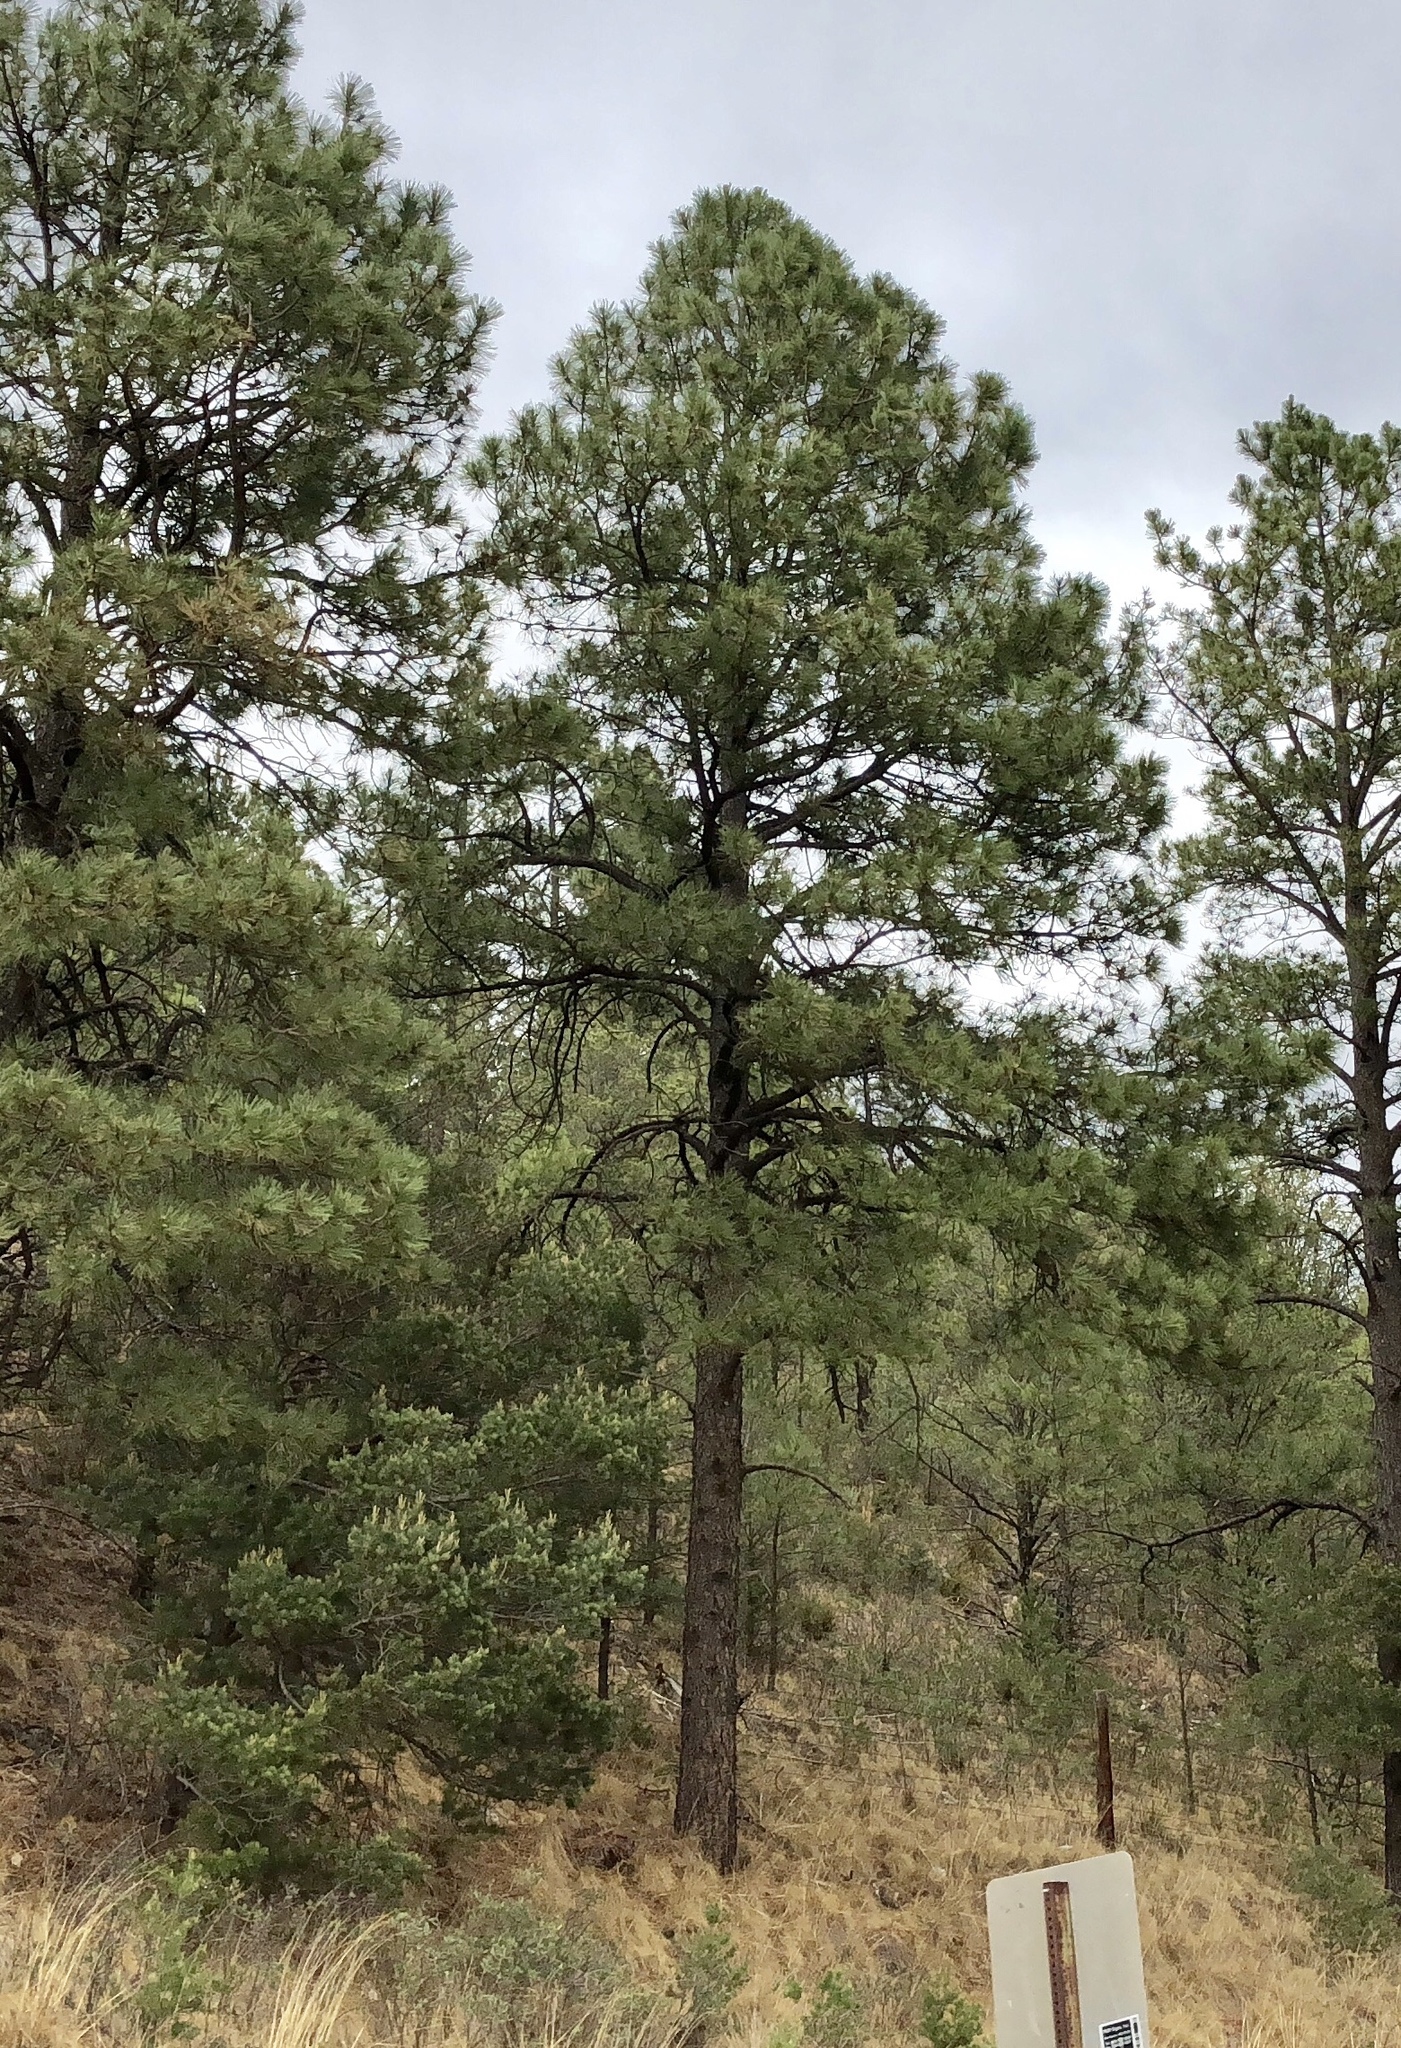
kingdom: Plantae
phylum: Tracheophyta
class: Pinopsida
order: Pinales
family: Pinaceae
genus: Pinus
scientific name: Pinus ponderosa
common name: Western yellow-pine
